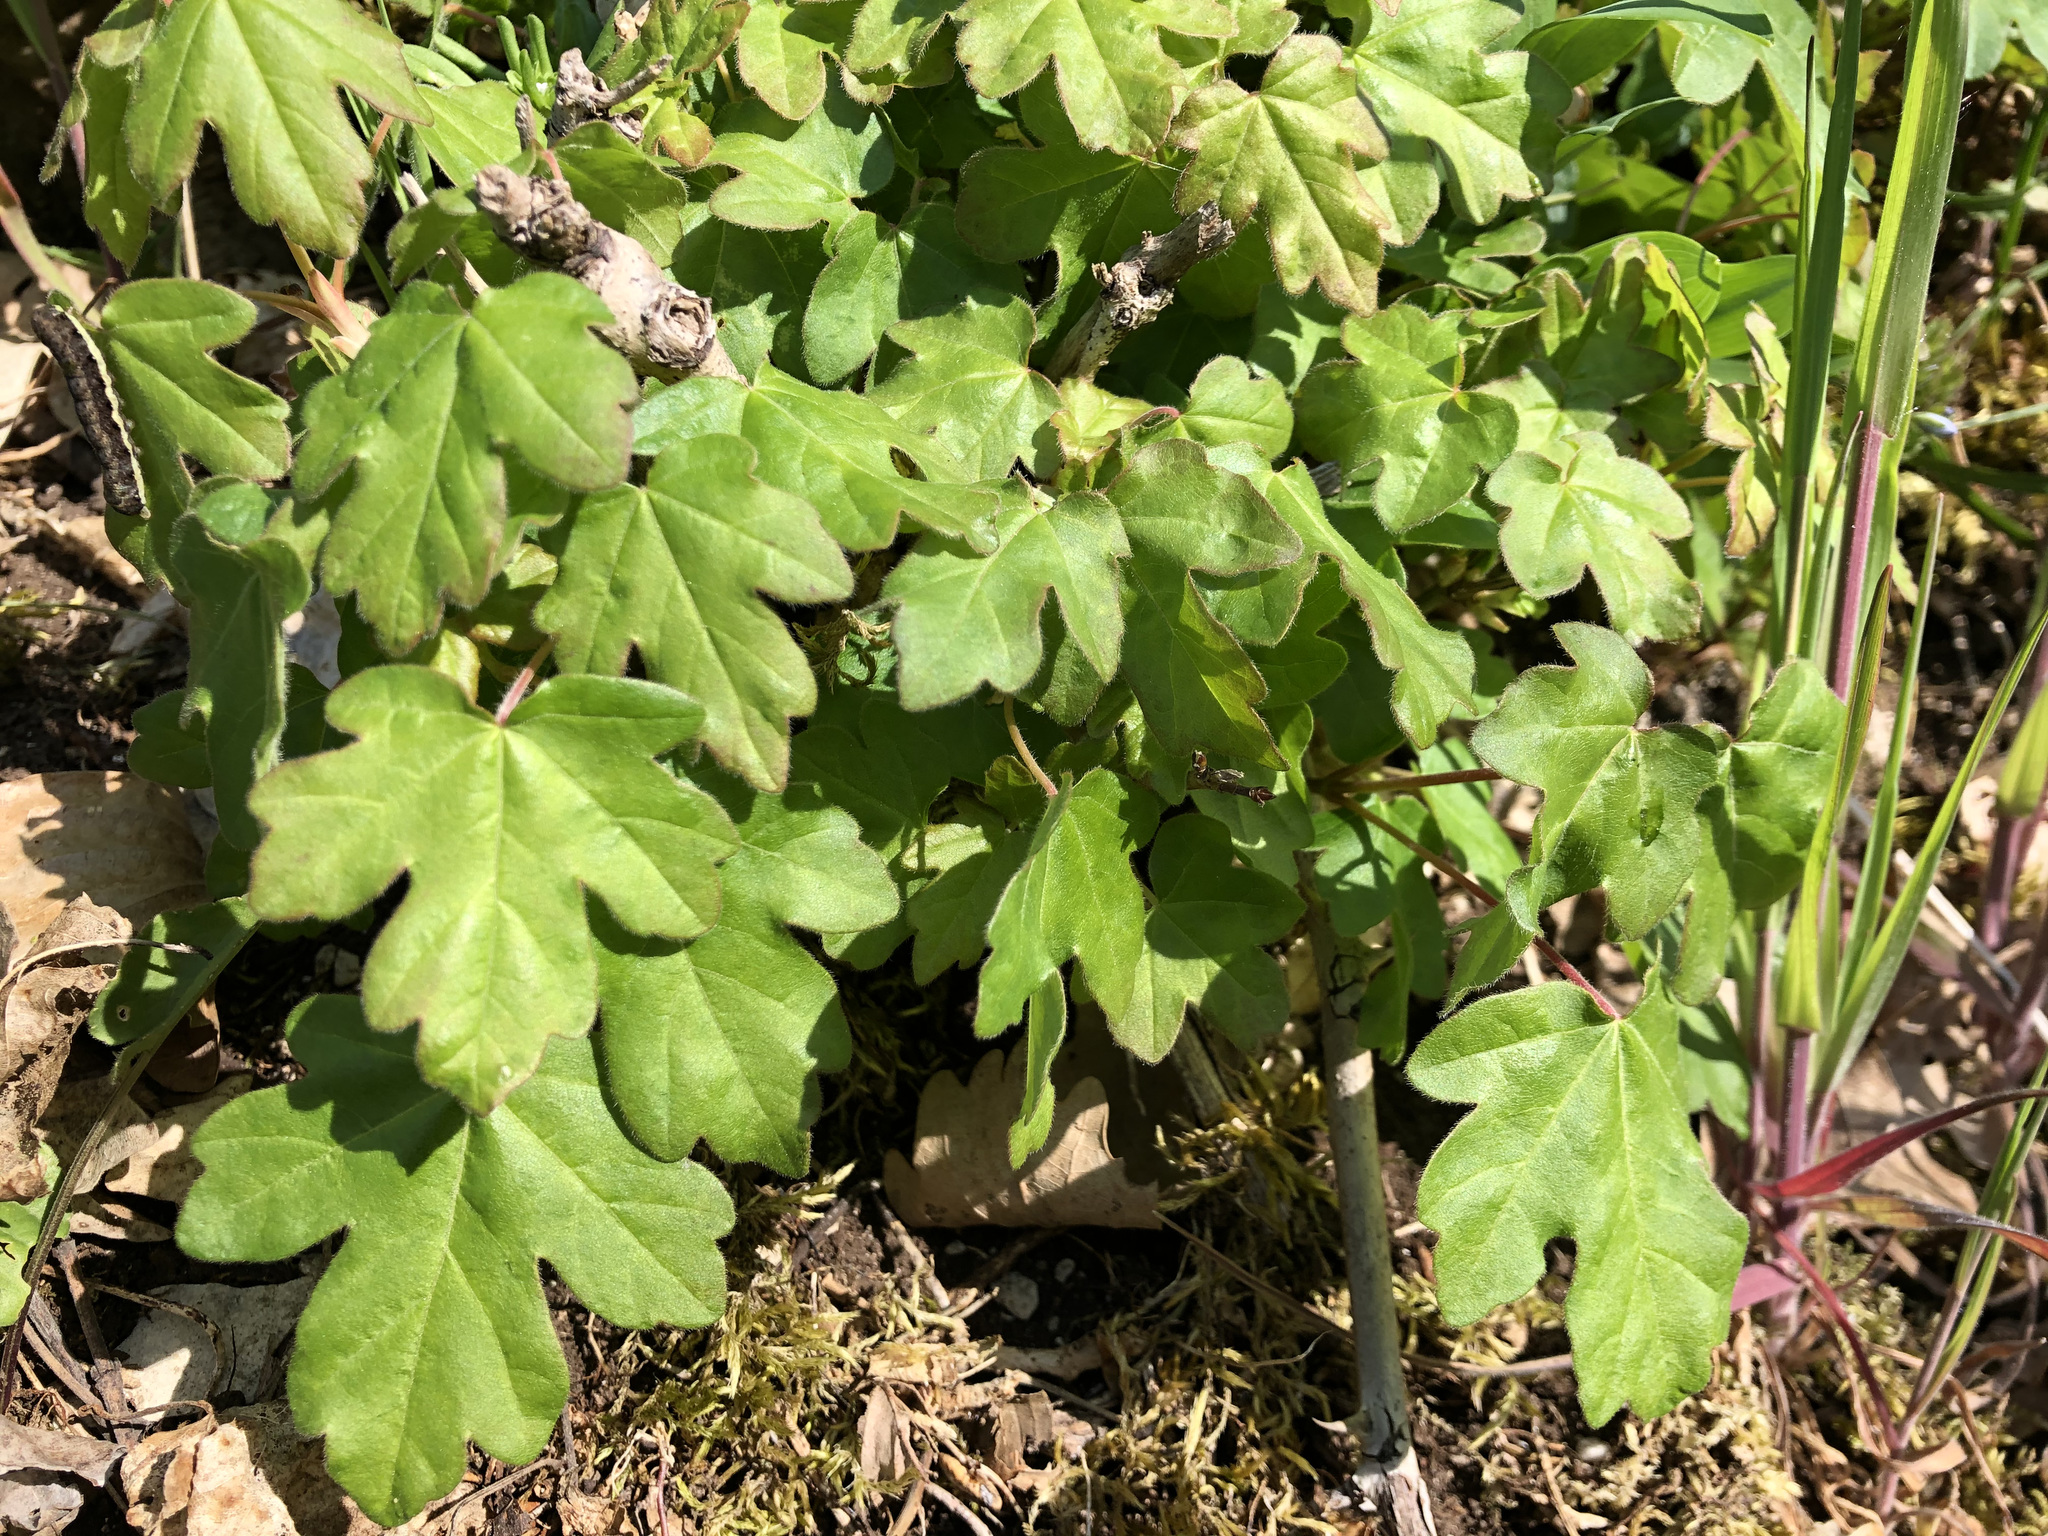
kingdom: Plantae
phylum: Tracheophyta
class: Magnoliopsida
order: Sapindales
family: Sapindaceae
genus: Acer
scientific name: Acer campestre
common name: Field maple
